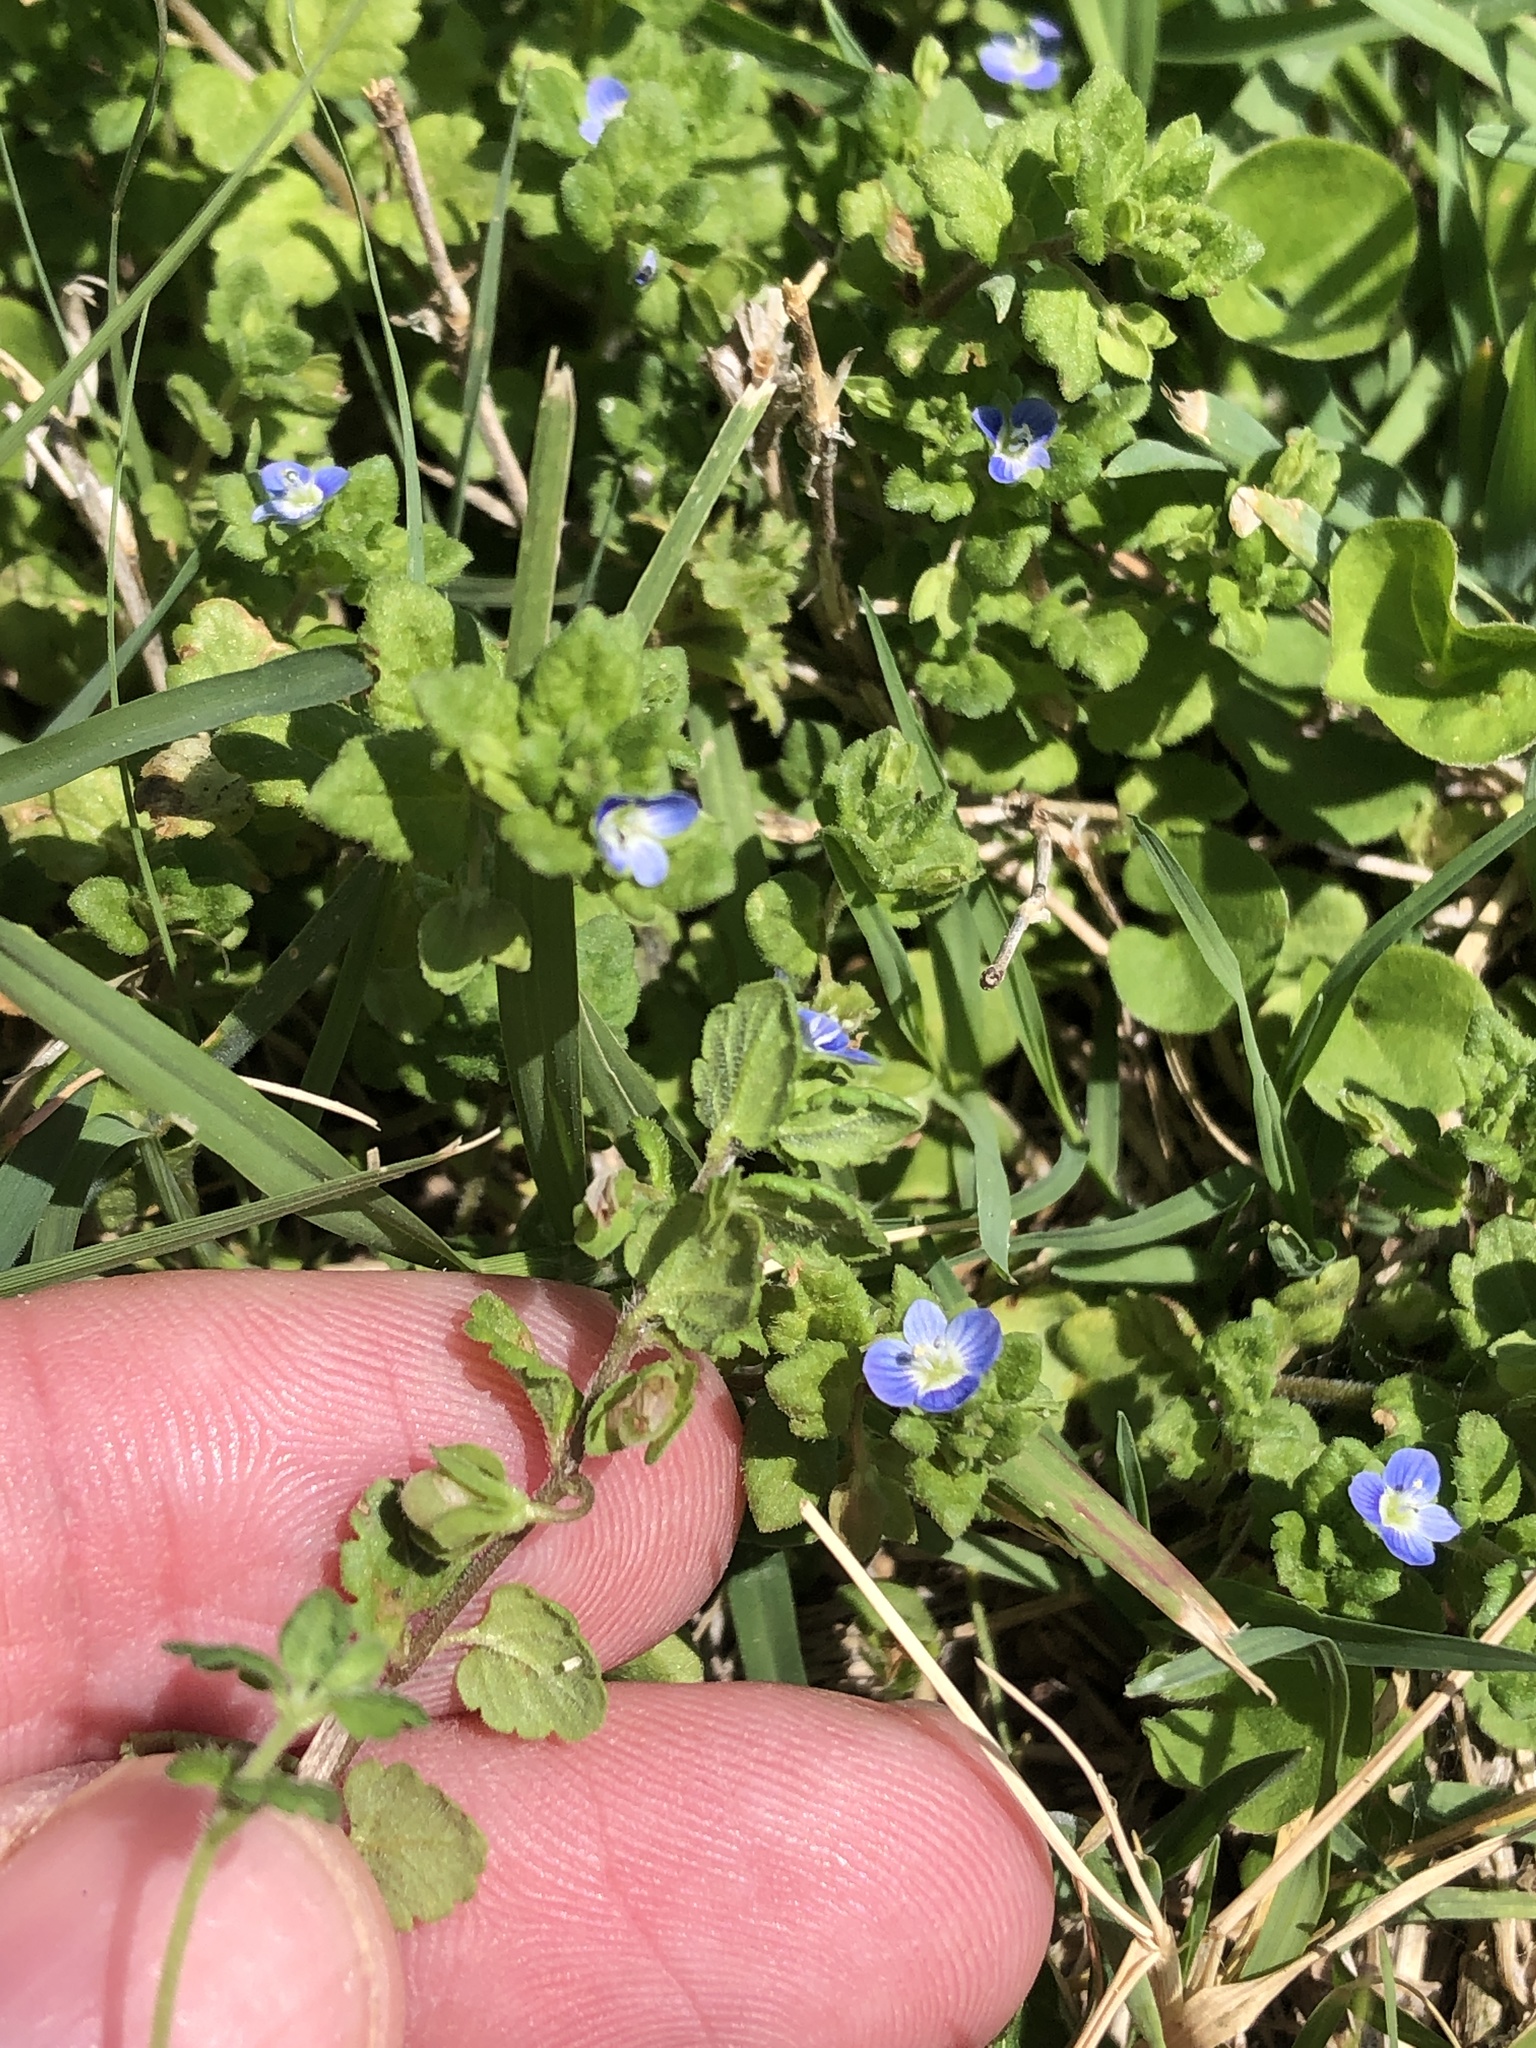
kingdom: Plantae
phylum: Tracheophyta
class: Magnoliopsida
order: Lamiales
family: Plantaginaceae
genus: Veronica
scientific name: Veronica polita
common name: Grey field-speedwell
